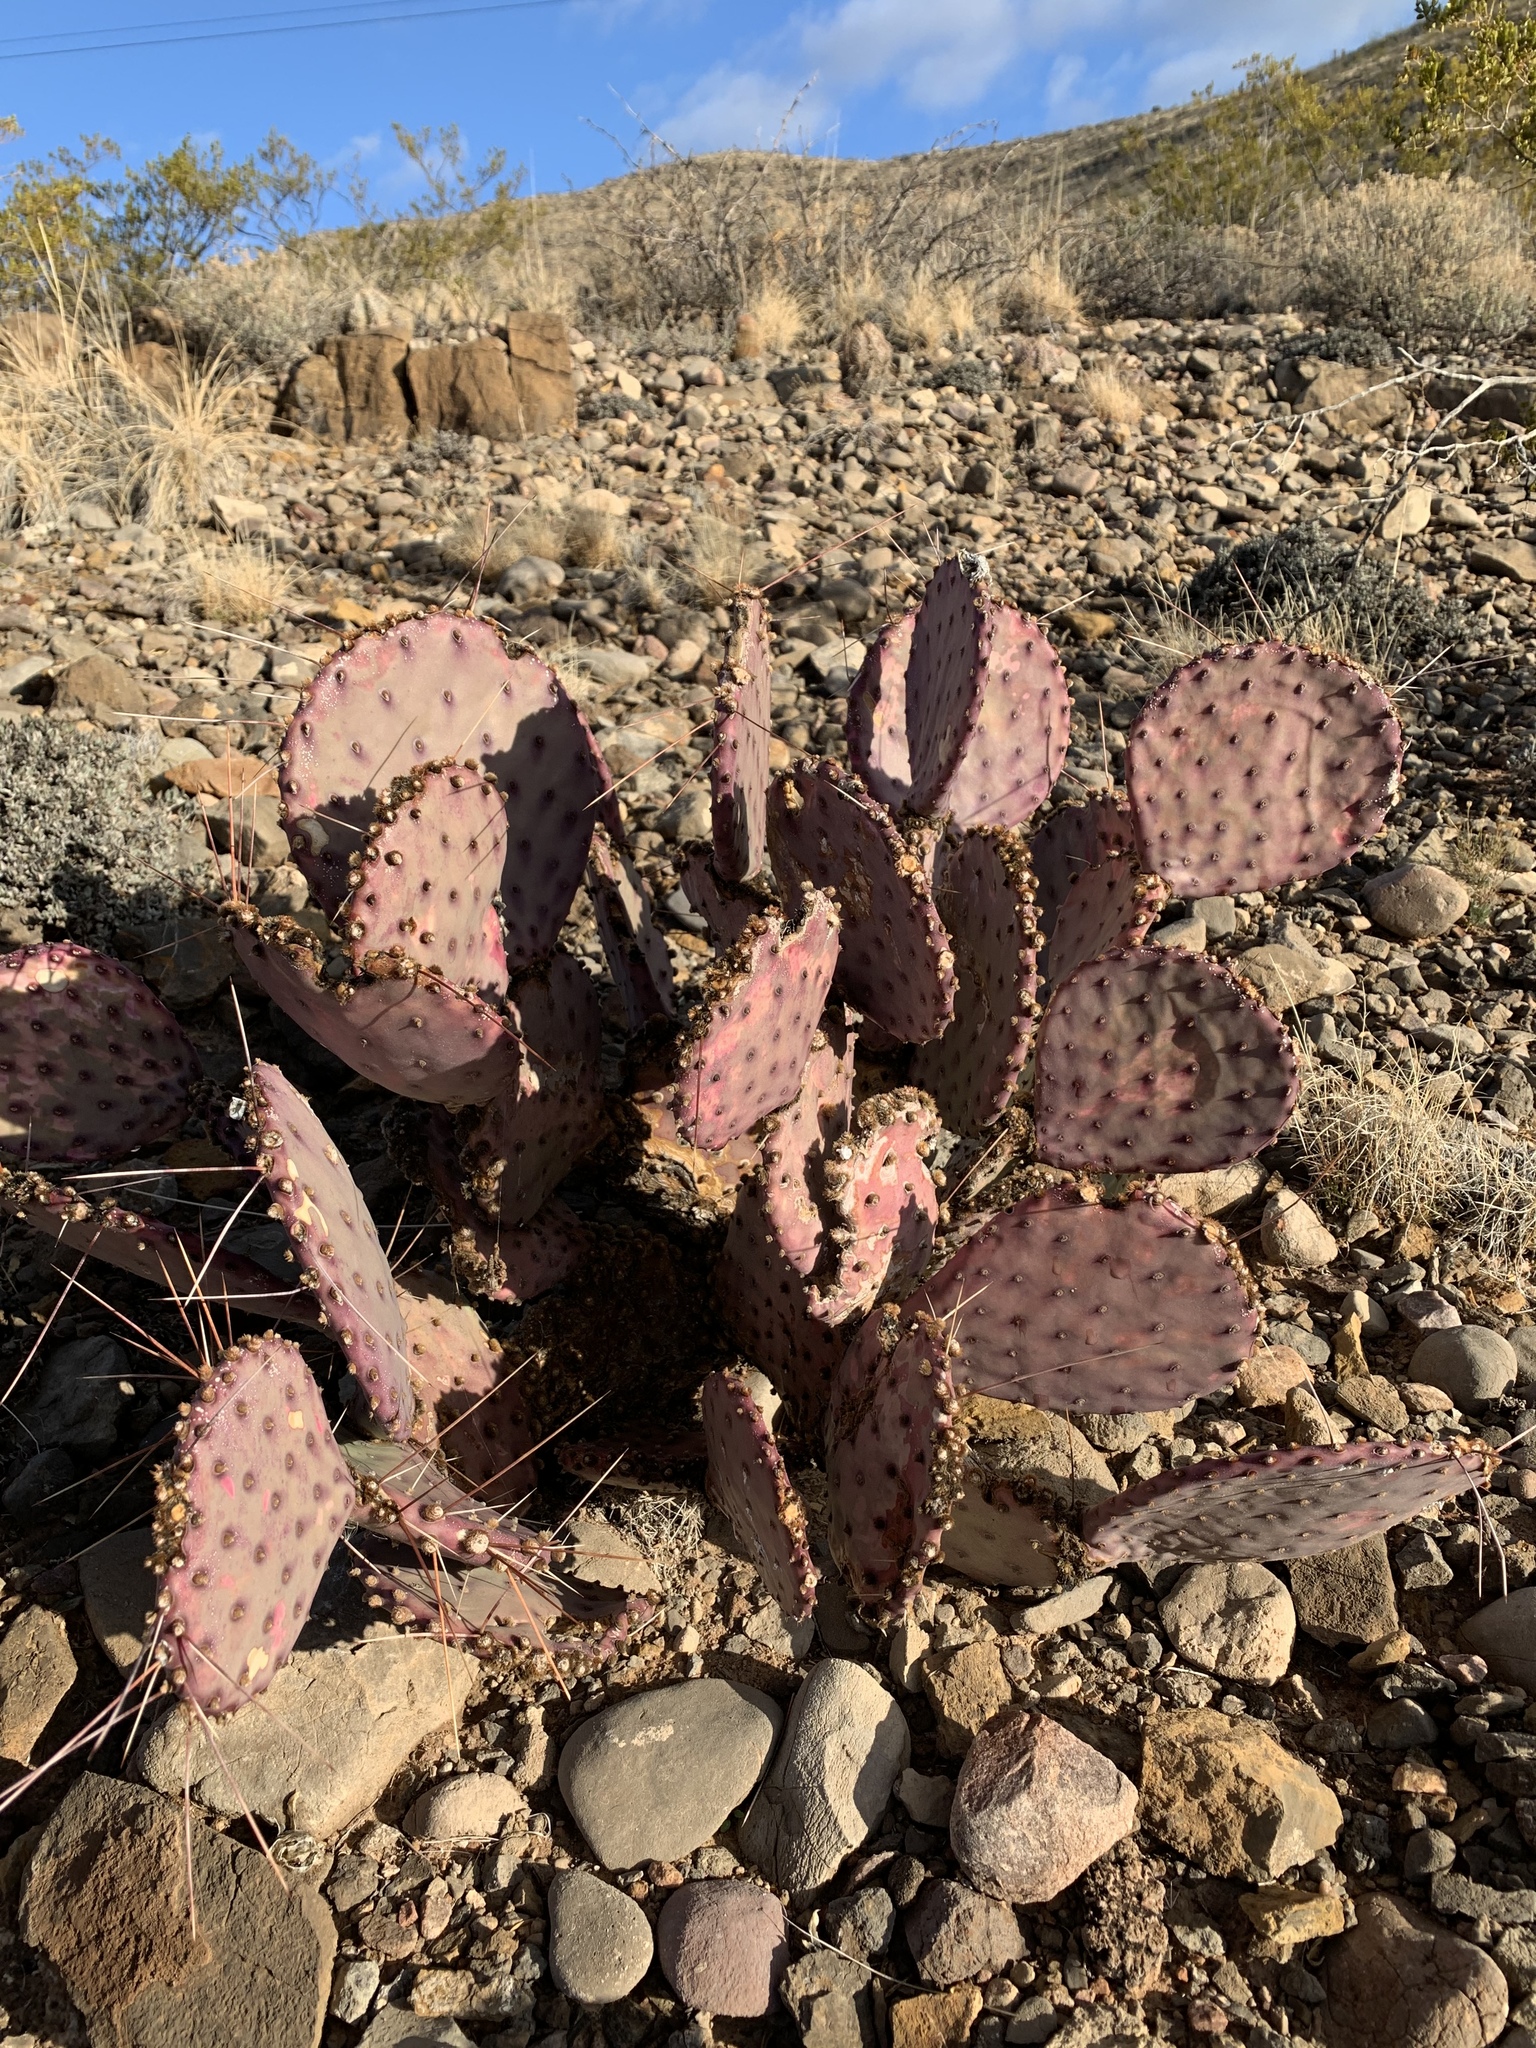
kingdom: Plantae
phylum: Tracheophyta
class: Magnoliopsida
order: Caryophyllales
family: Cactaceae
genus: Opuntia
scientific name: Opuntia macrocentra
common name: Purple prickly-pear
